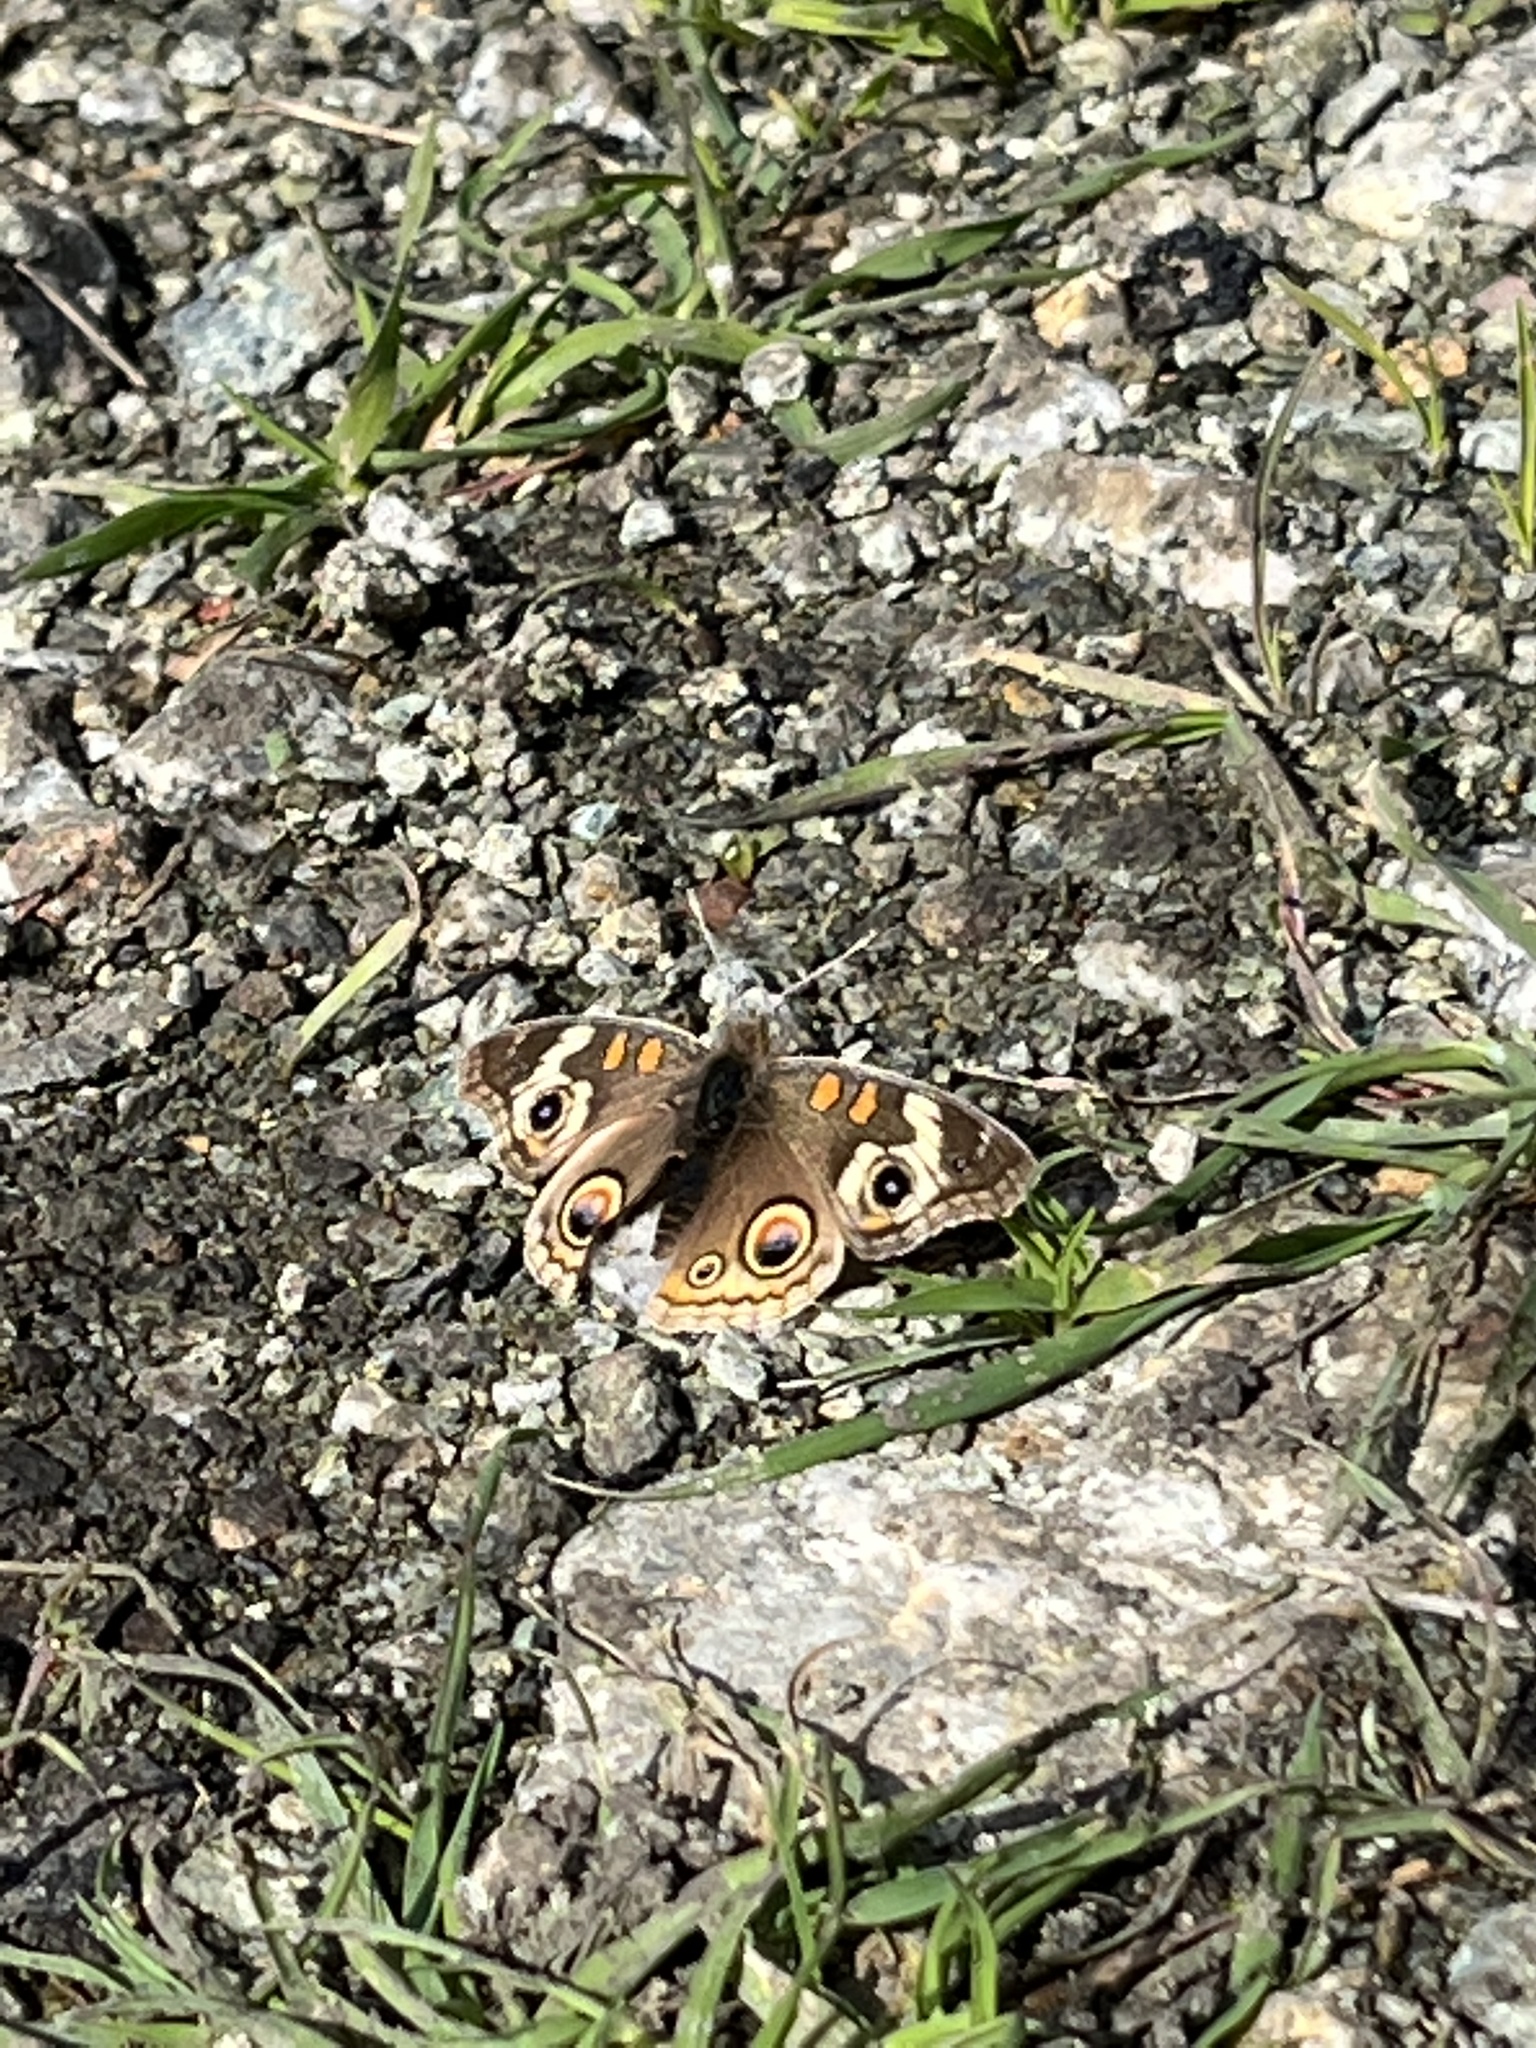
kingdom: Animalia
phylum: Arthropoda
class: Insecta
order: Lepidoptera
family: Nymphalidae
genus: Junonia
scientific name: Junonia grisea
